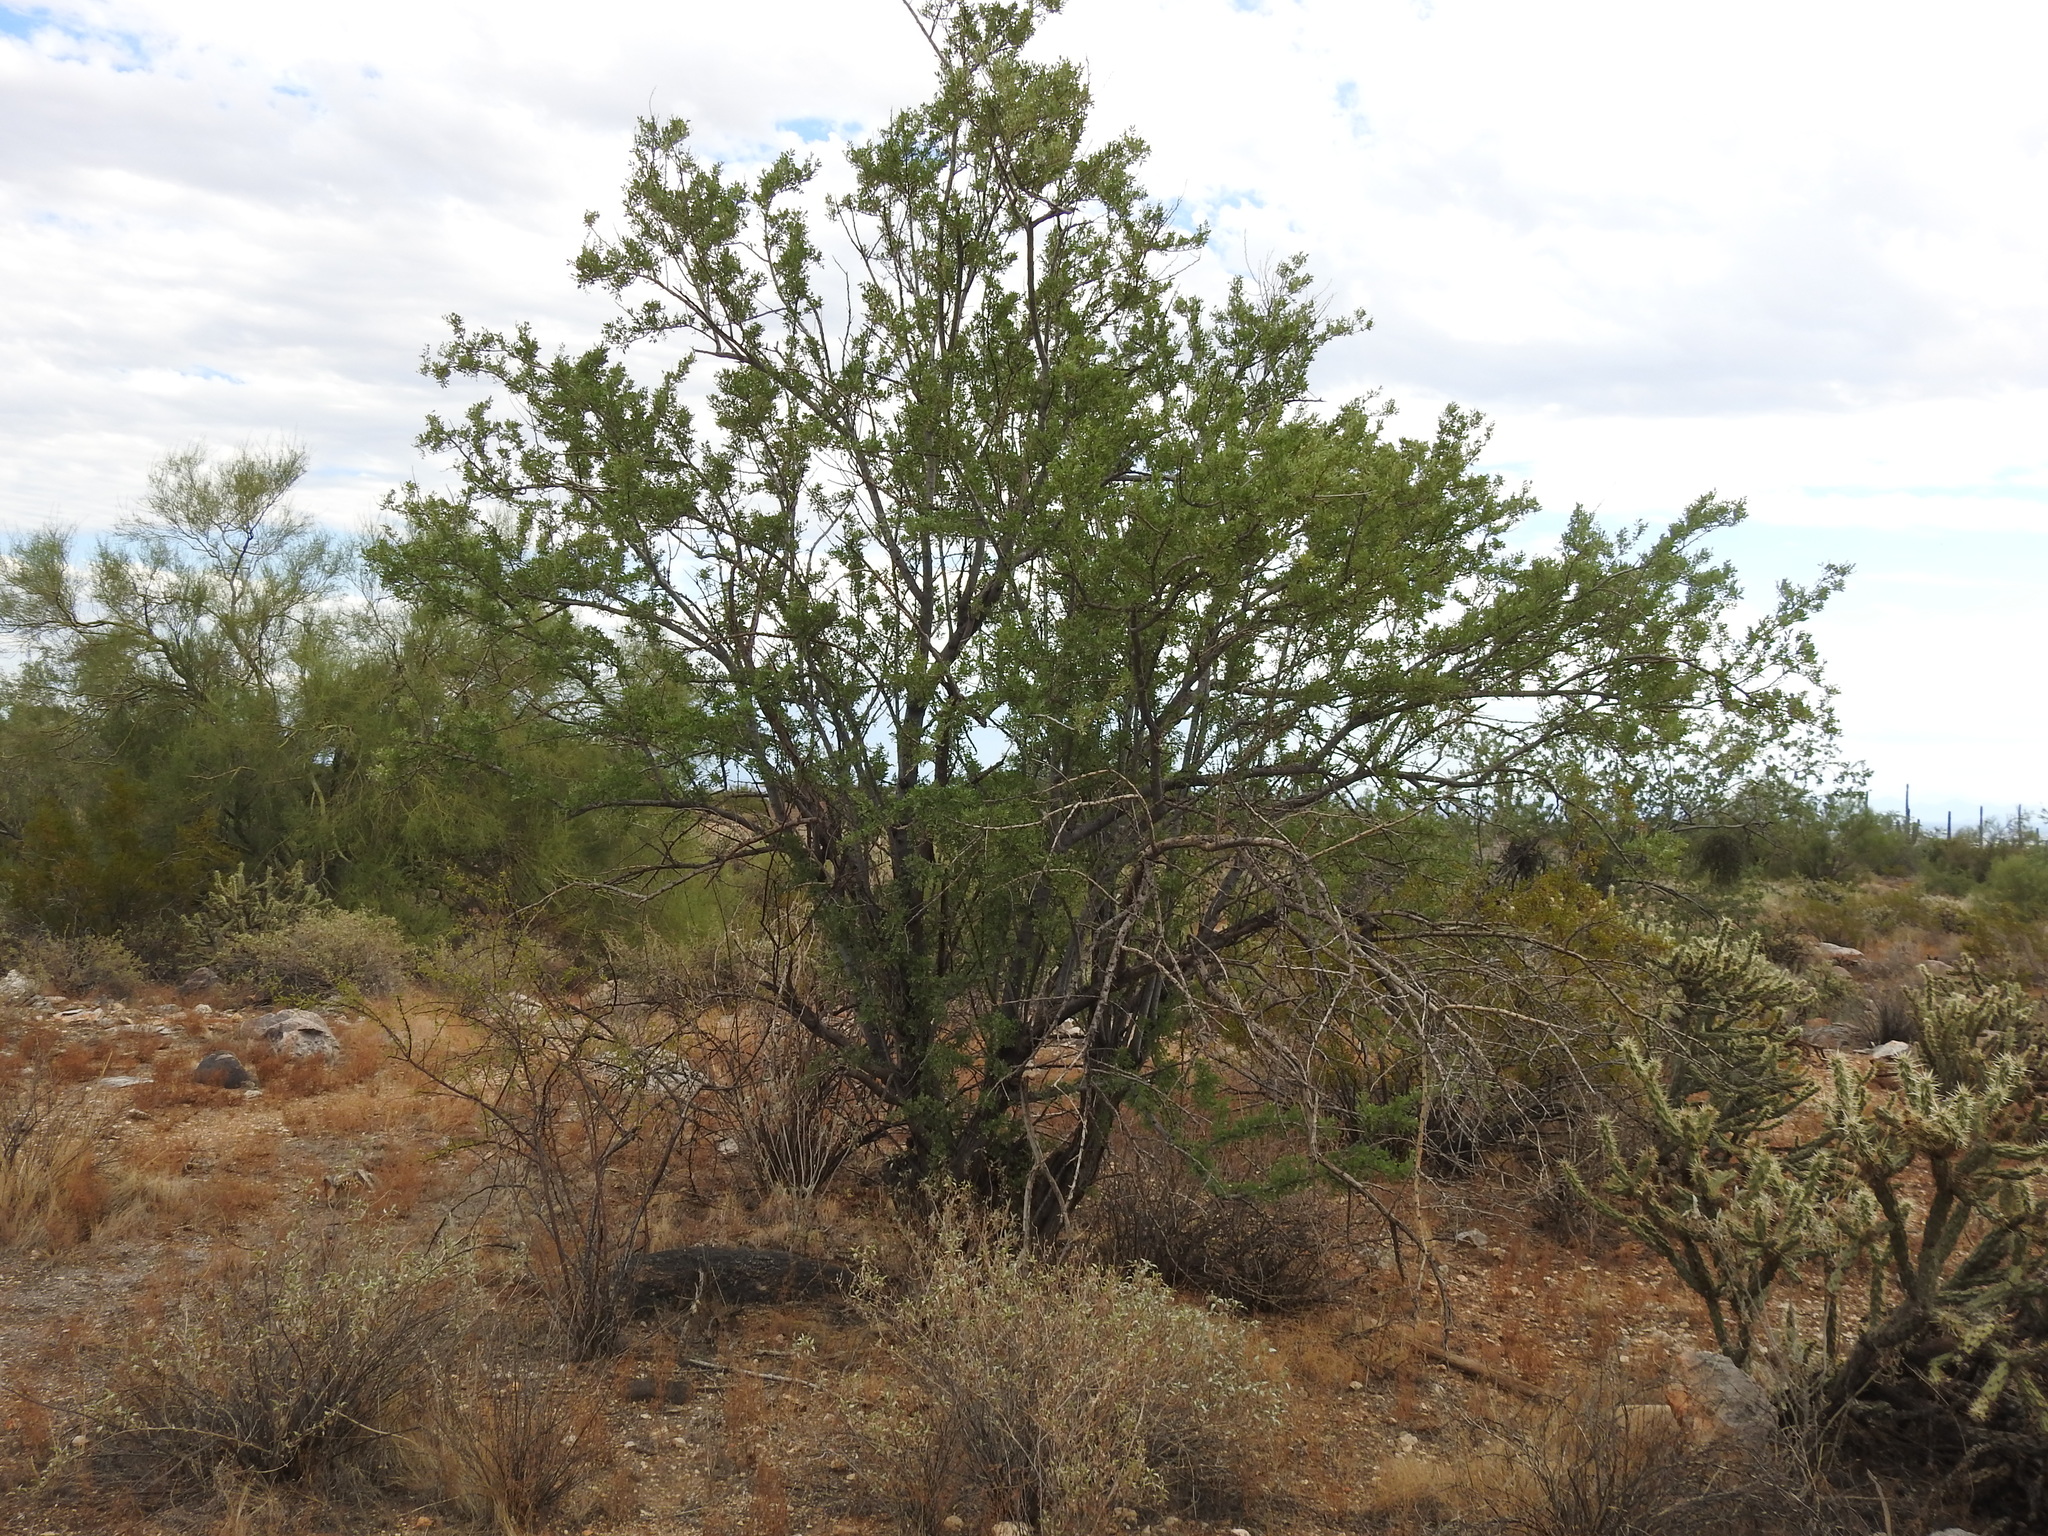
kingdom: Plantae
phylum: Tracheophyta
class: Magnoliopsida
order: Fabales
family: Fabaceae
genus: Olneya
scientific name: Olneya tesota
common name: Desert ironwood
